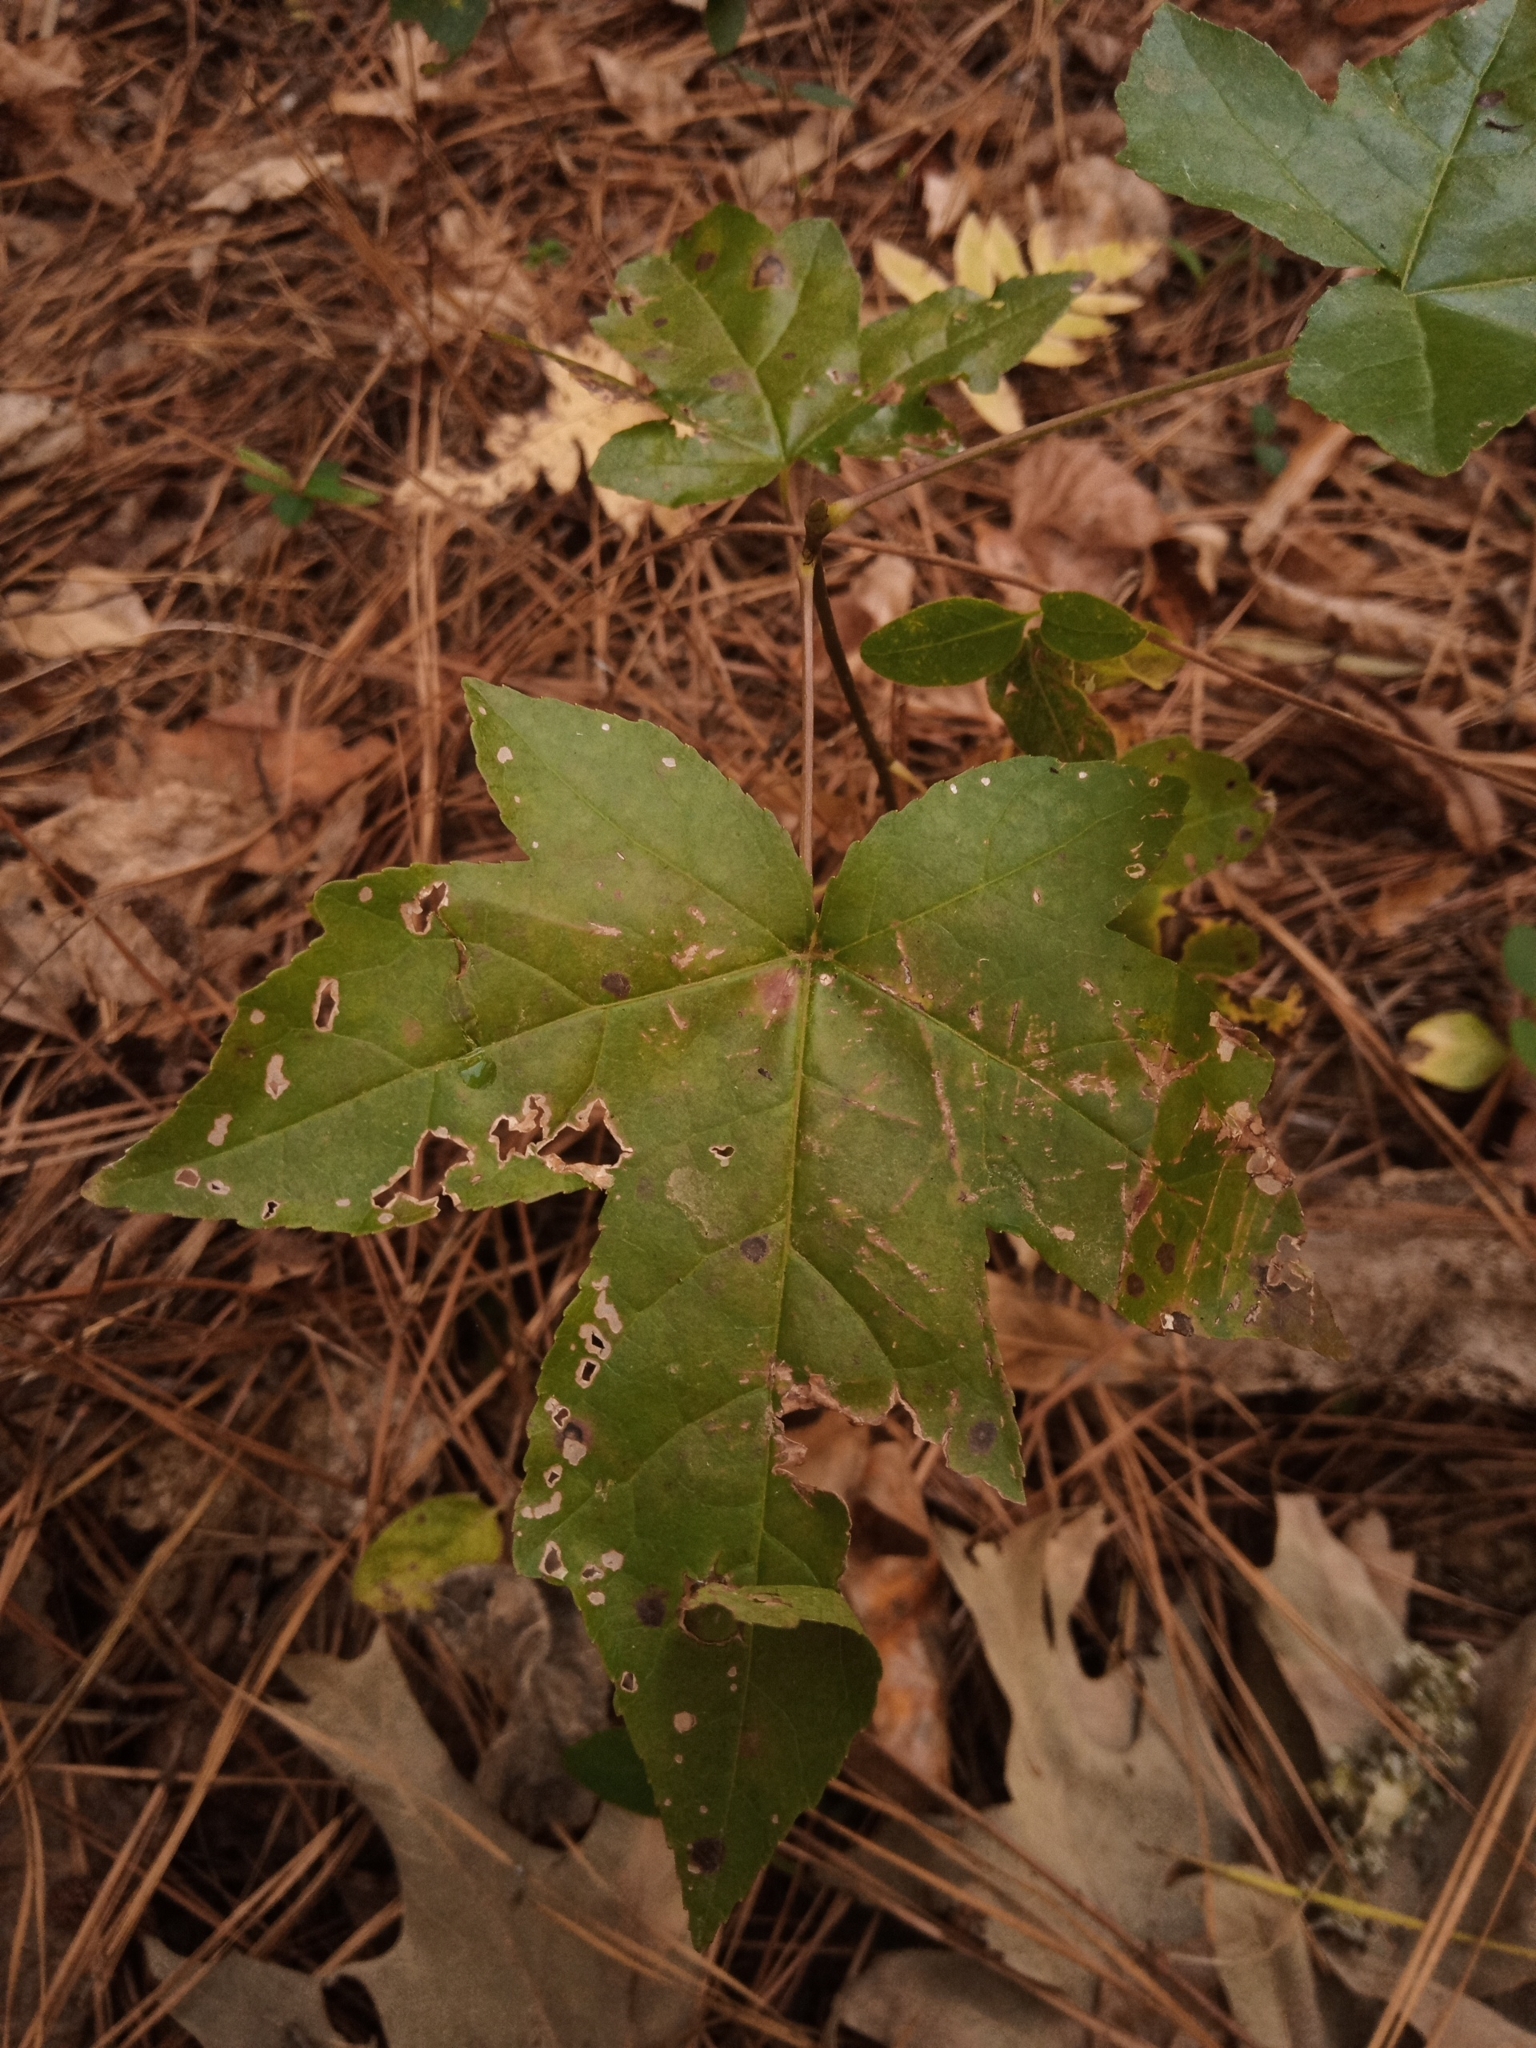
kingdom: Plantae
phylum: Tracheophyta
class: Magnoliopsida
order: Saxifragales
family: Altingiaceae
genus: Liquidambar
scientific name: Liquidambar styraciflua
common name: Sweet gum
